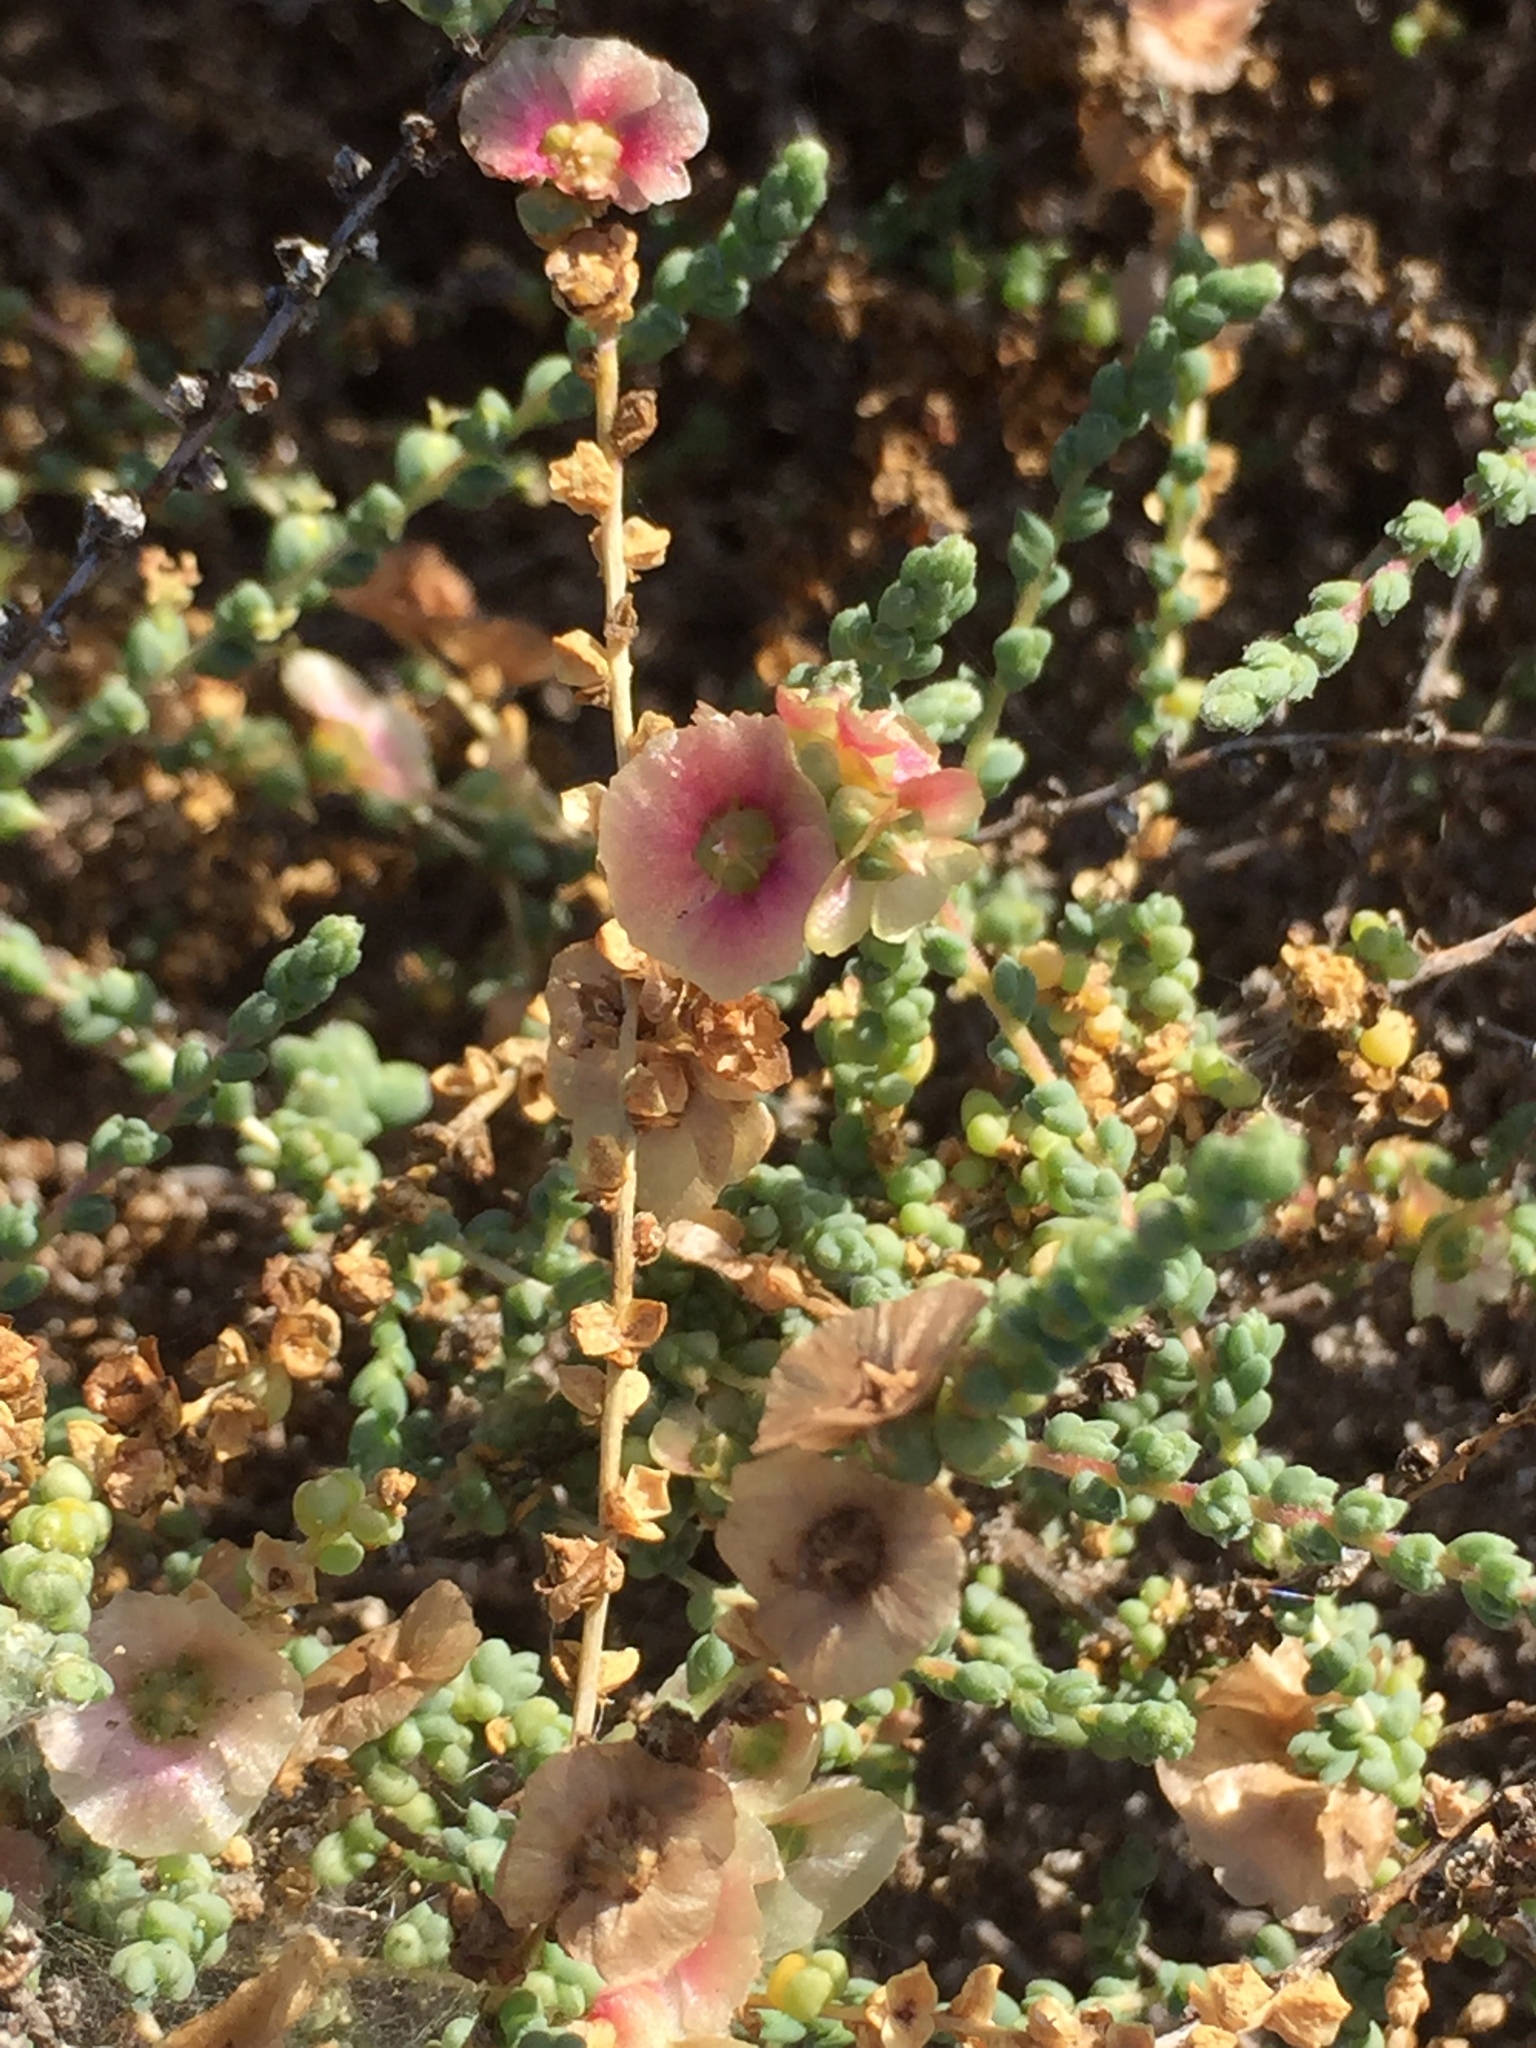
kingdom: Plantae
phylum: Tracheophyta
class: Magnoliopsida
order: Caryophyllales
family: Amaranthaceae
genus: Nitrosalsola
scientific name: Nitrosalsola vermiculata
